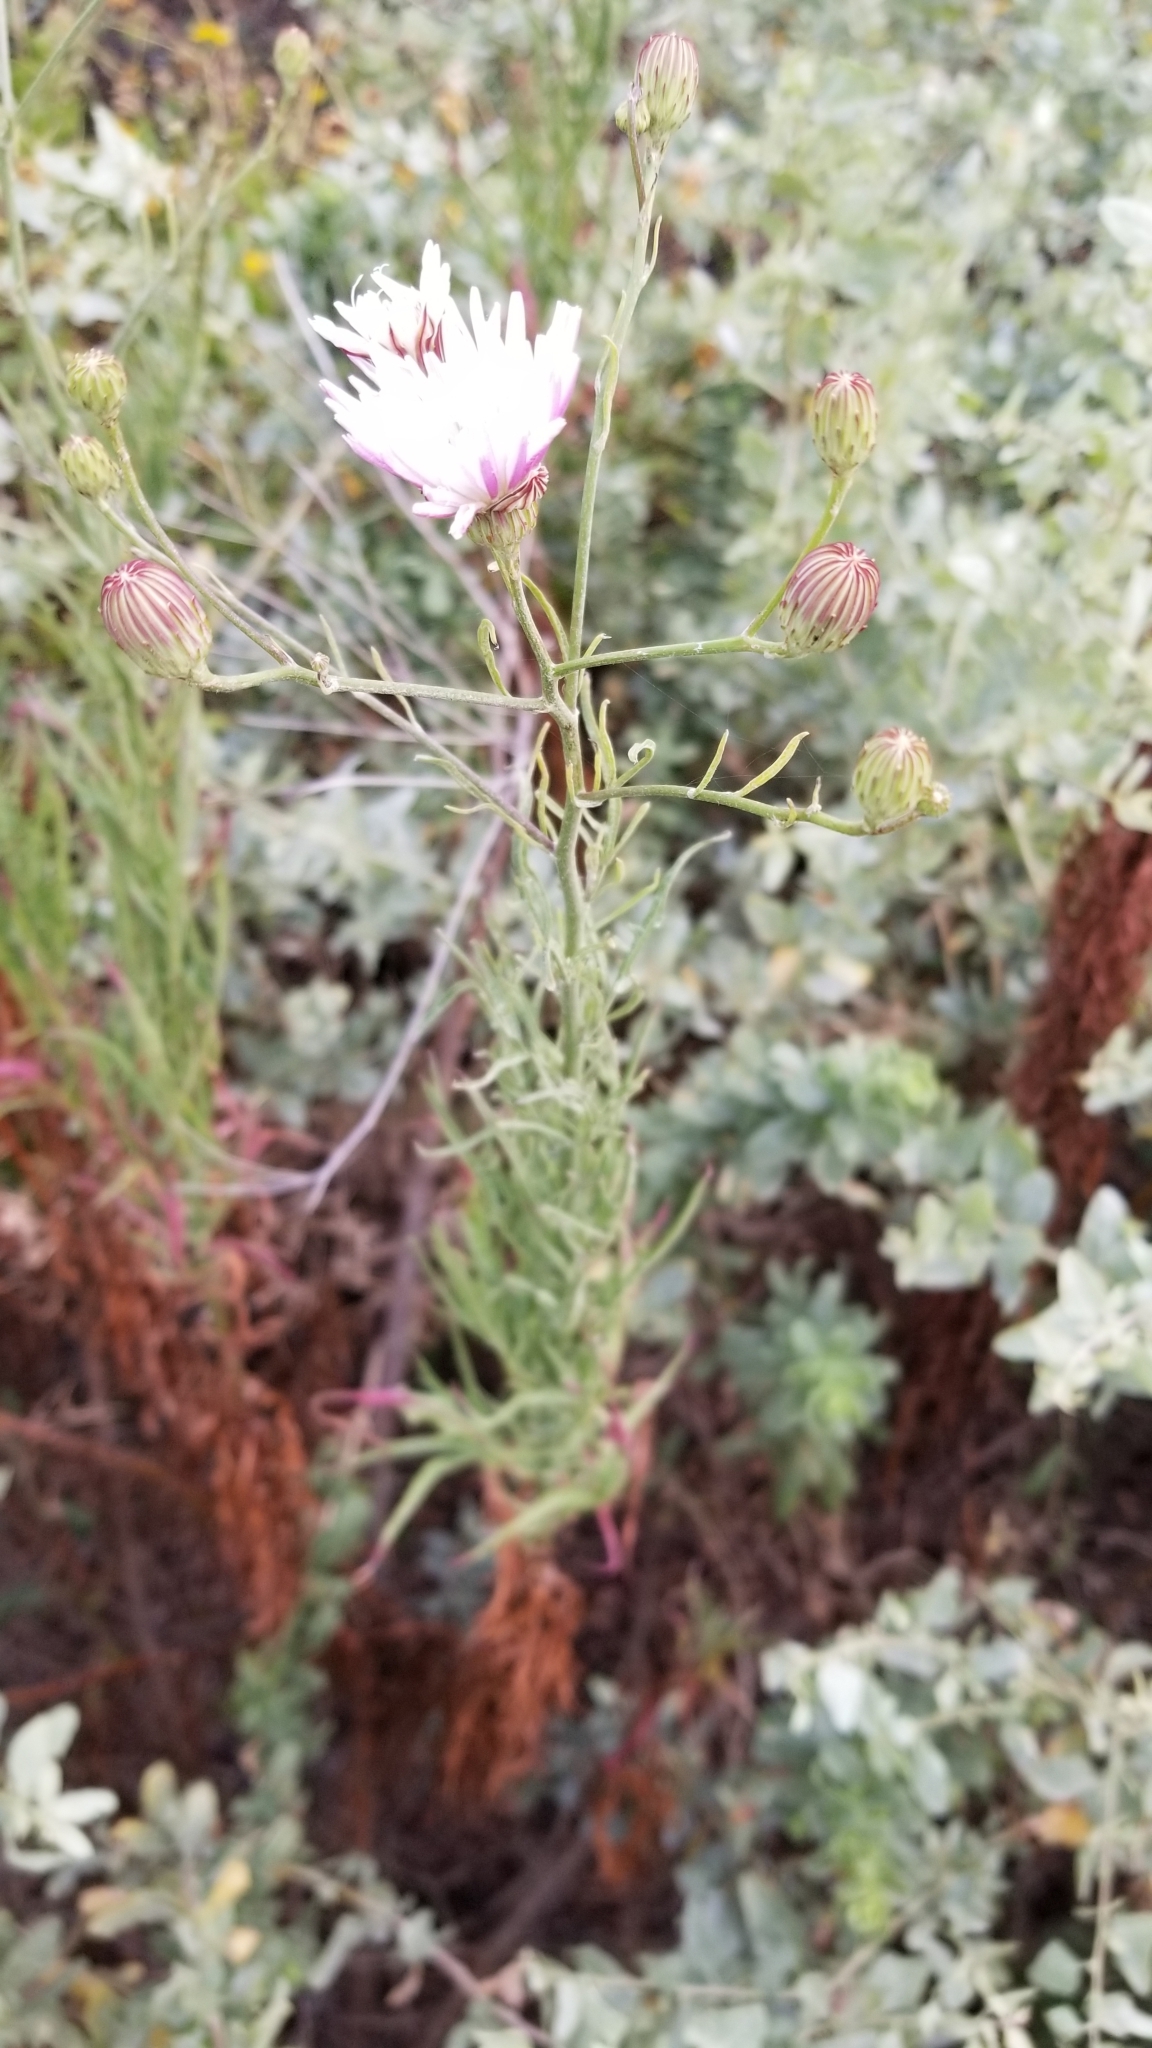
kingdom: Plantae
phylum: Tracheophyta
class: Magnoliopsida
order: Asterales
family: Asteraceae
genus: Malacothrix
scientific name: Malacothrix saxatilis
